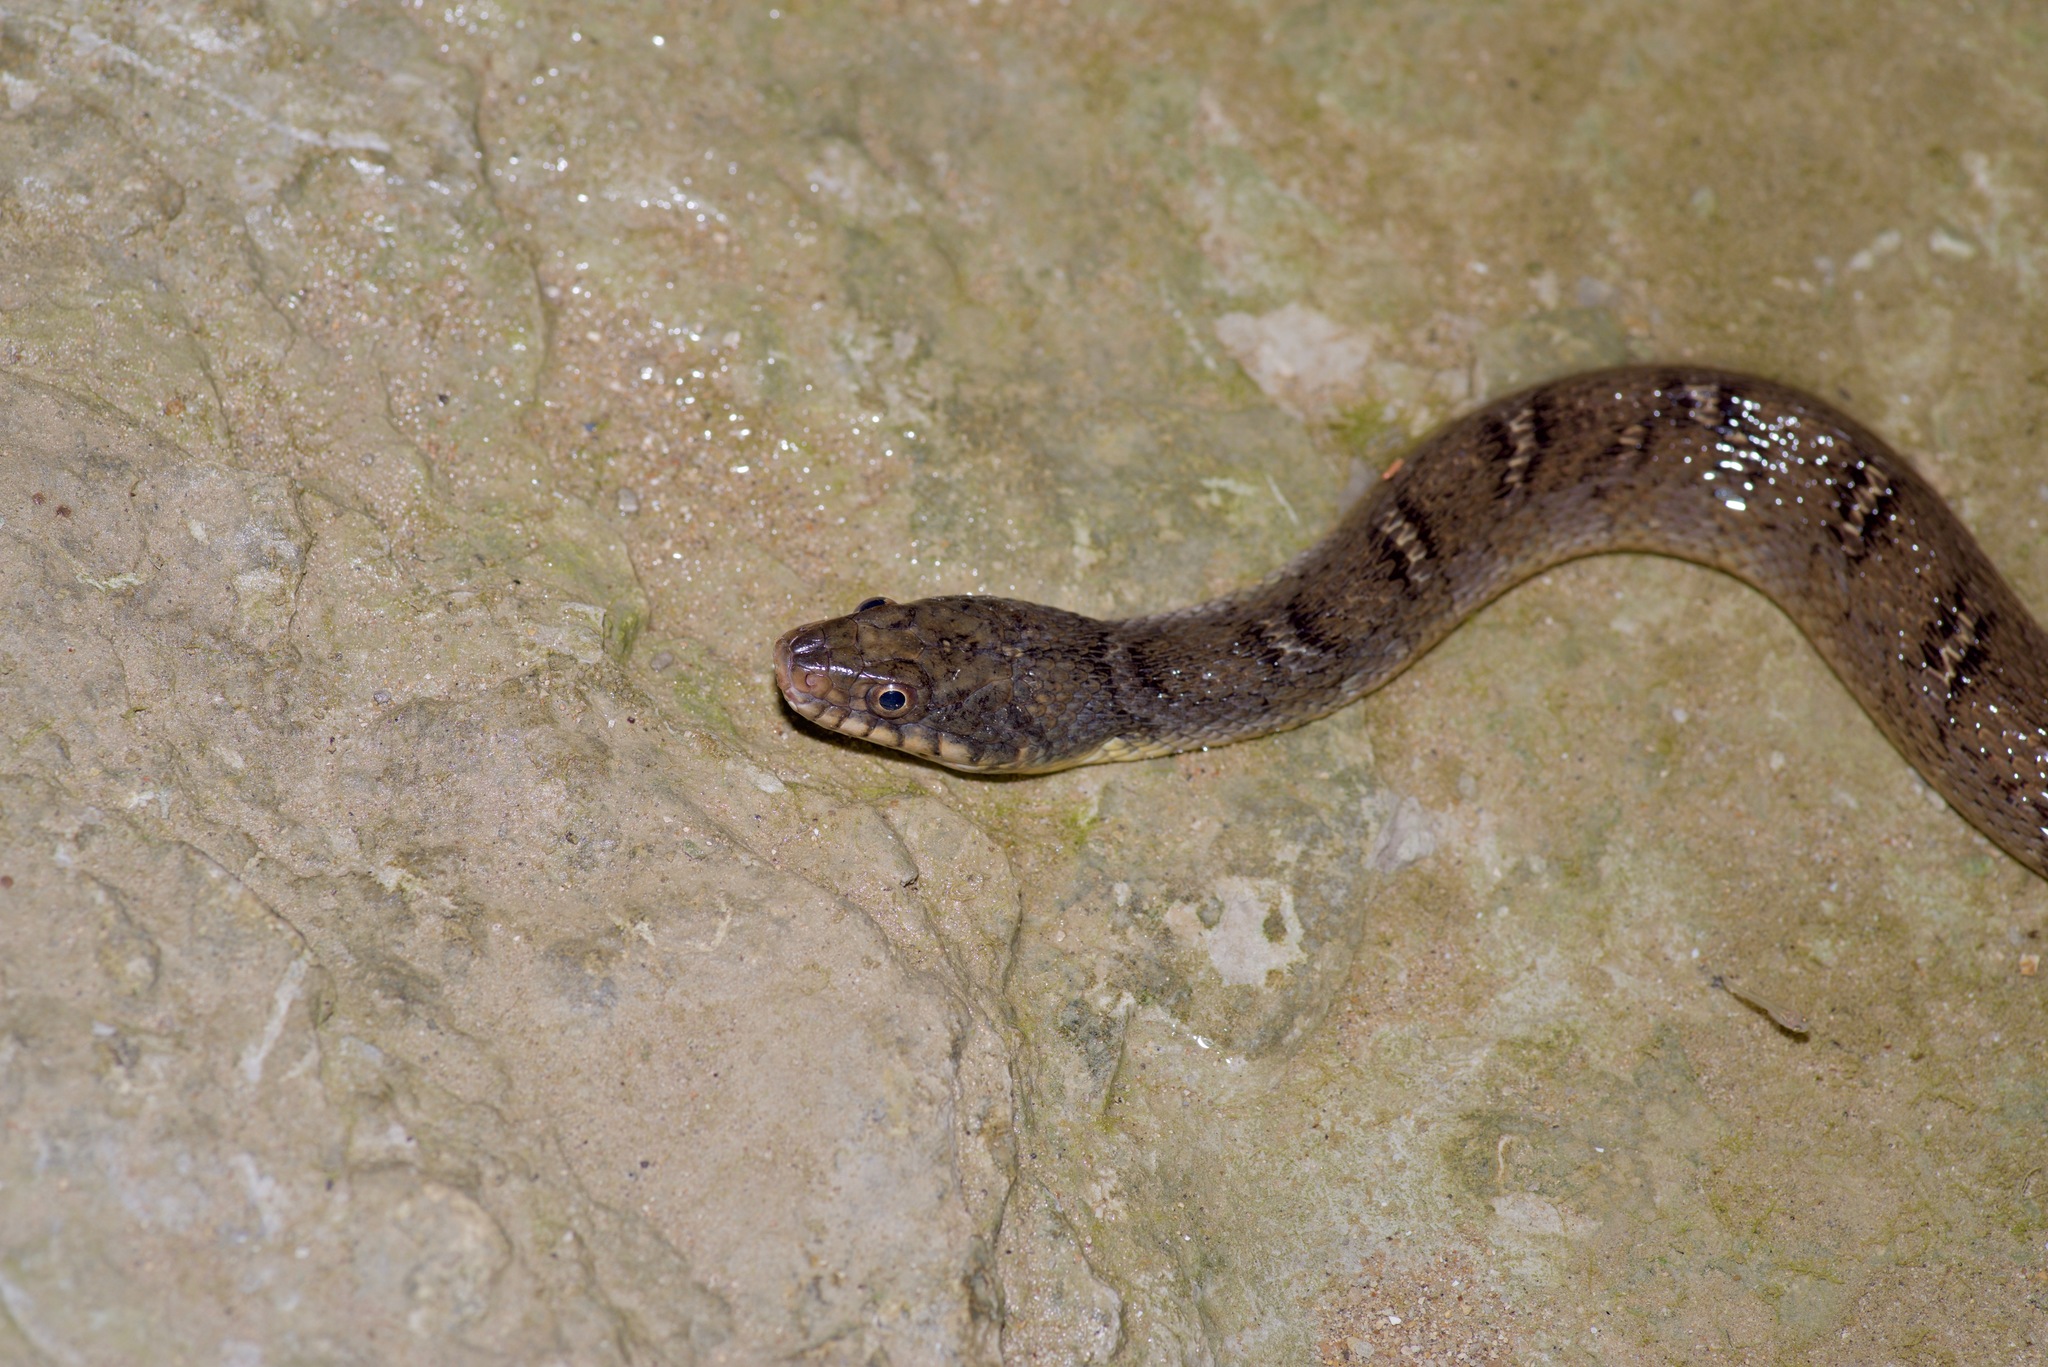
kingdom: Animalia
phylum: Chordata
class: Squamata
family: Colubridae
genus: Nerodia
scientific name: Nerodia erythrogaster
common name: Plainbelly water snake
